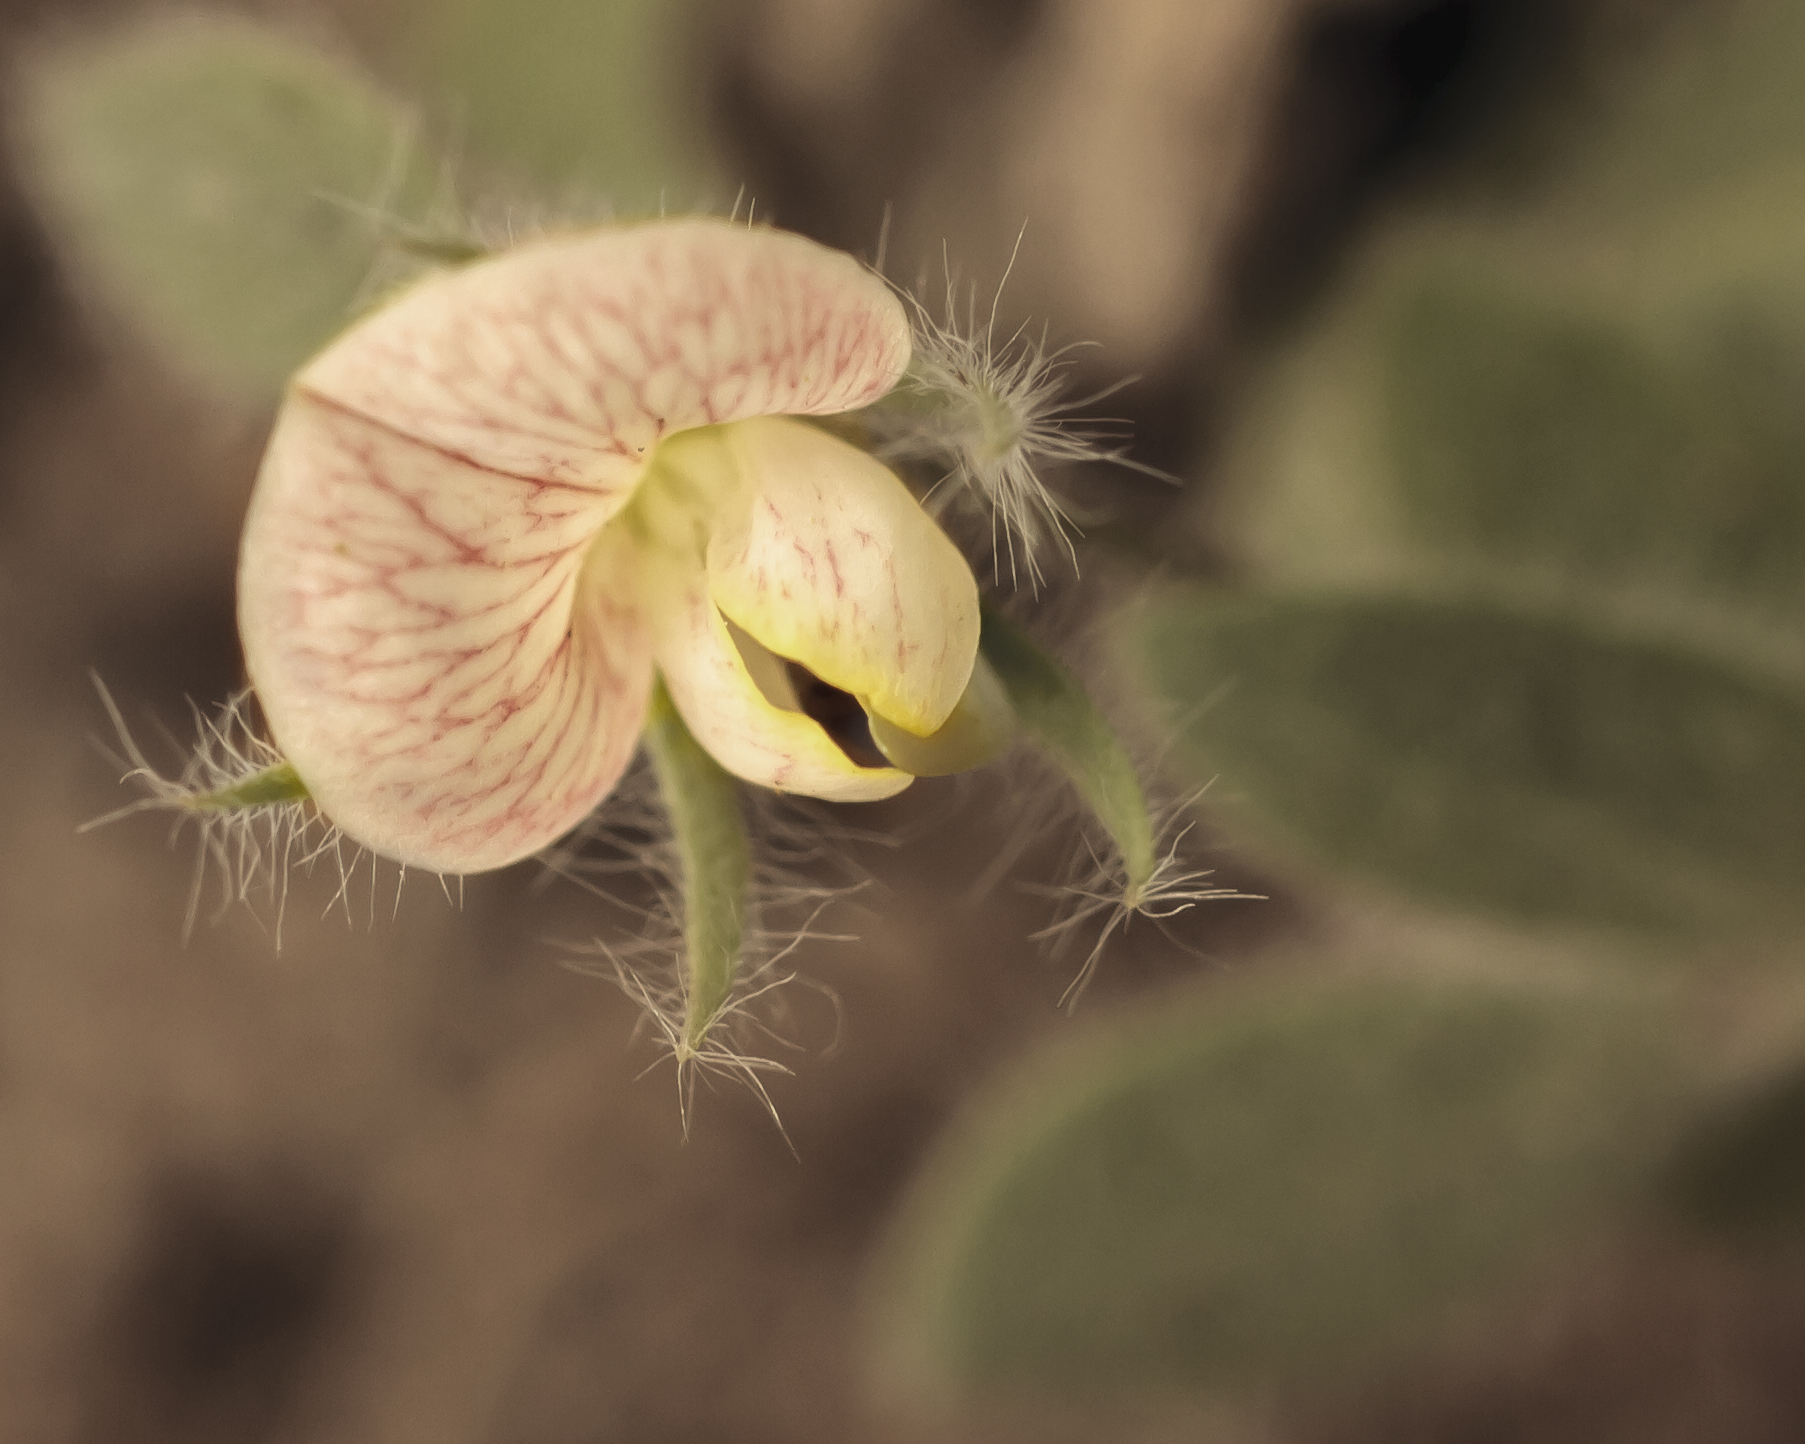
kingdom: Plantae
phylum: Tracheophyta
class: Magnoliopsida
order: Fabales
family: Fabaceae
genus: Acmispon
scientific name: Acmispon americanus
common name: American bird's-foot trefoil
